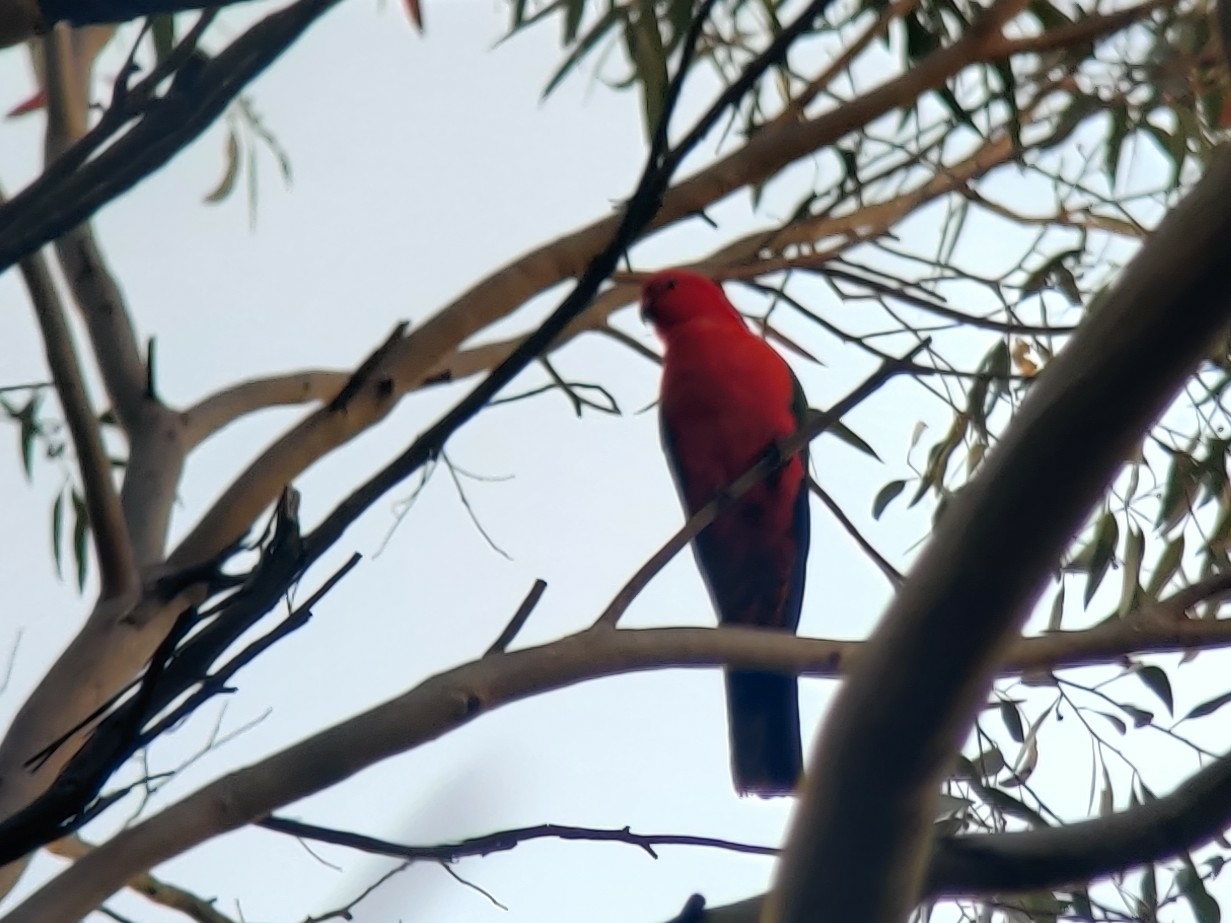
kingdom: Animalia
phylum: Chordata
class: Aves
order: Psittaciformes
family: Psittacidae
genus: Alisterus
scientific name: Alisterus scapularis
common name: Australian king parrot
